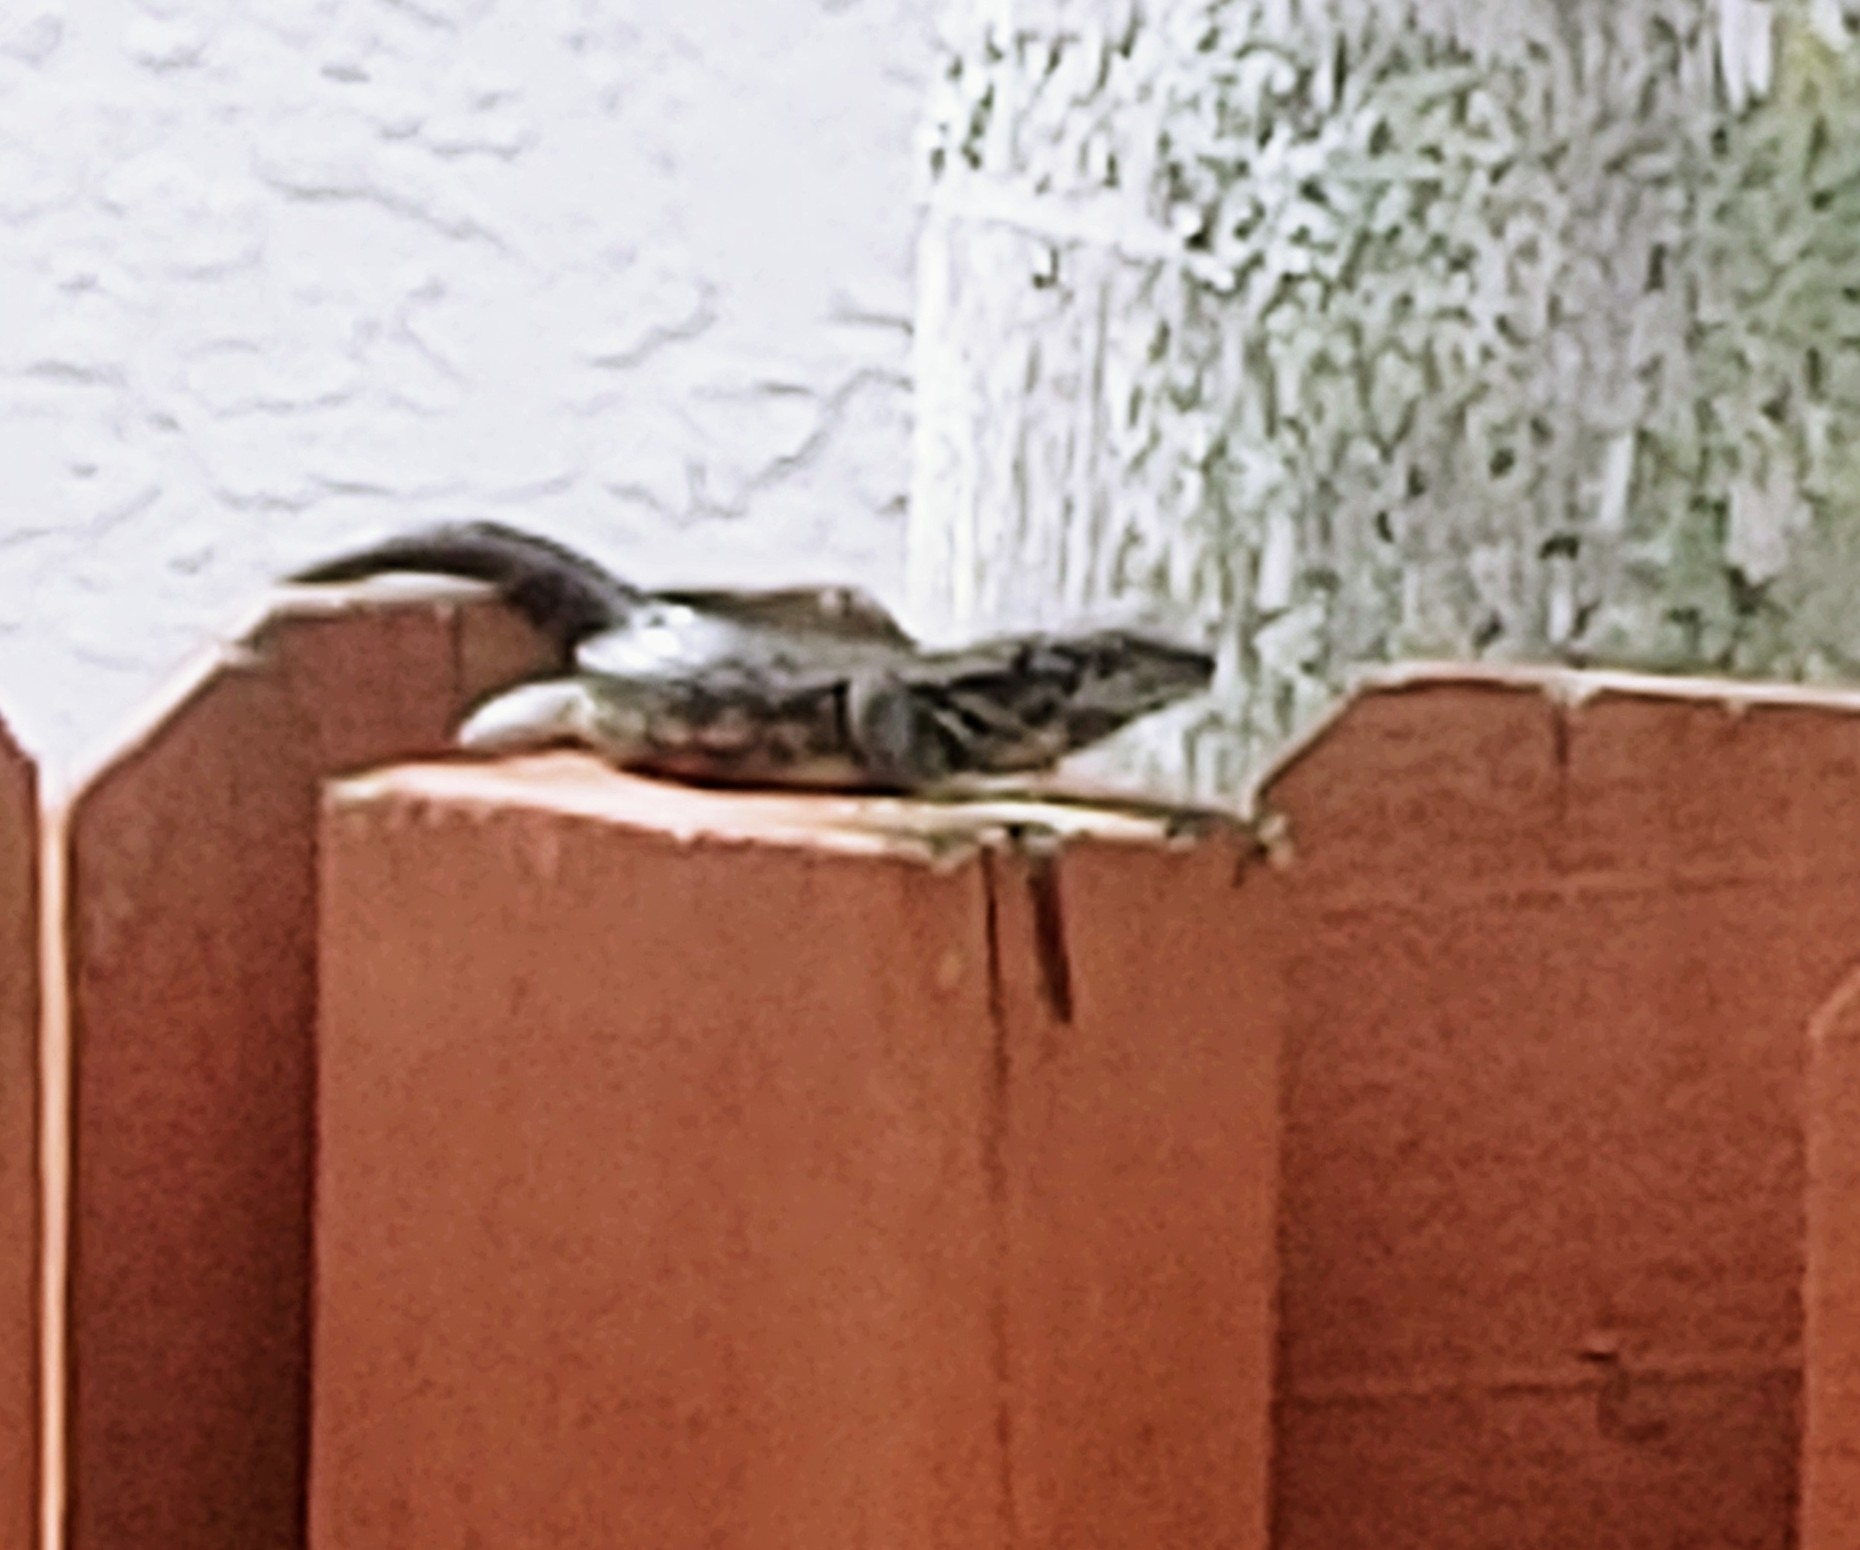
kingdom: Animalia
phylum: Chordata
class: Squamata
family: Leiocephalidae
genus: Leiocephalus
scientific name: Leiocephalus carinatus
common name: Northern curly-tailed lizard
